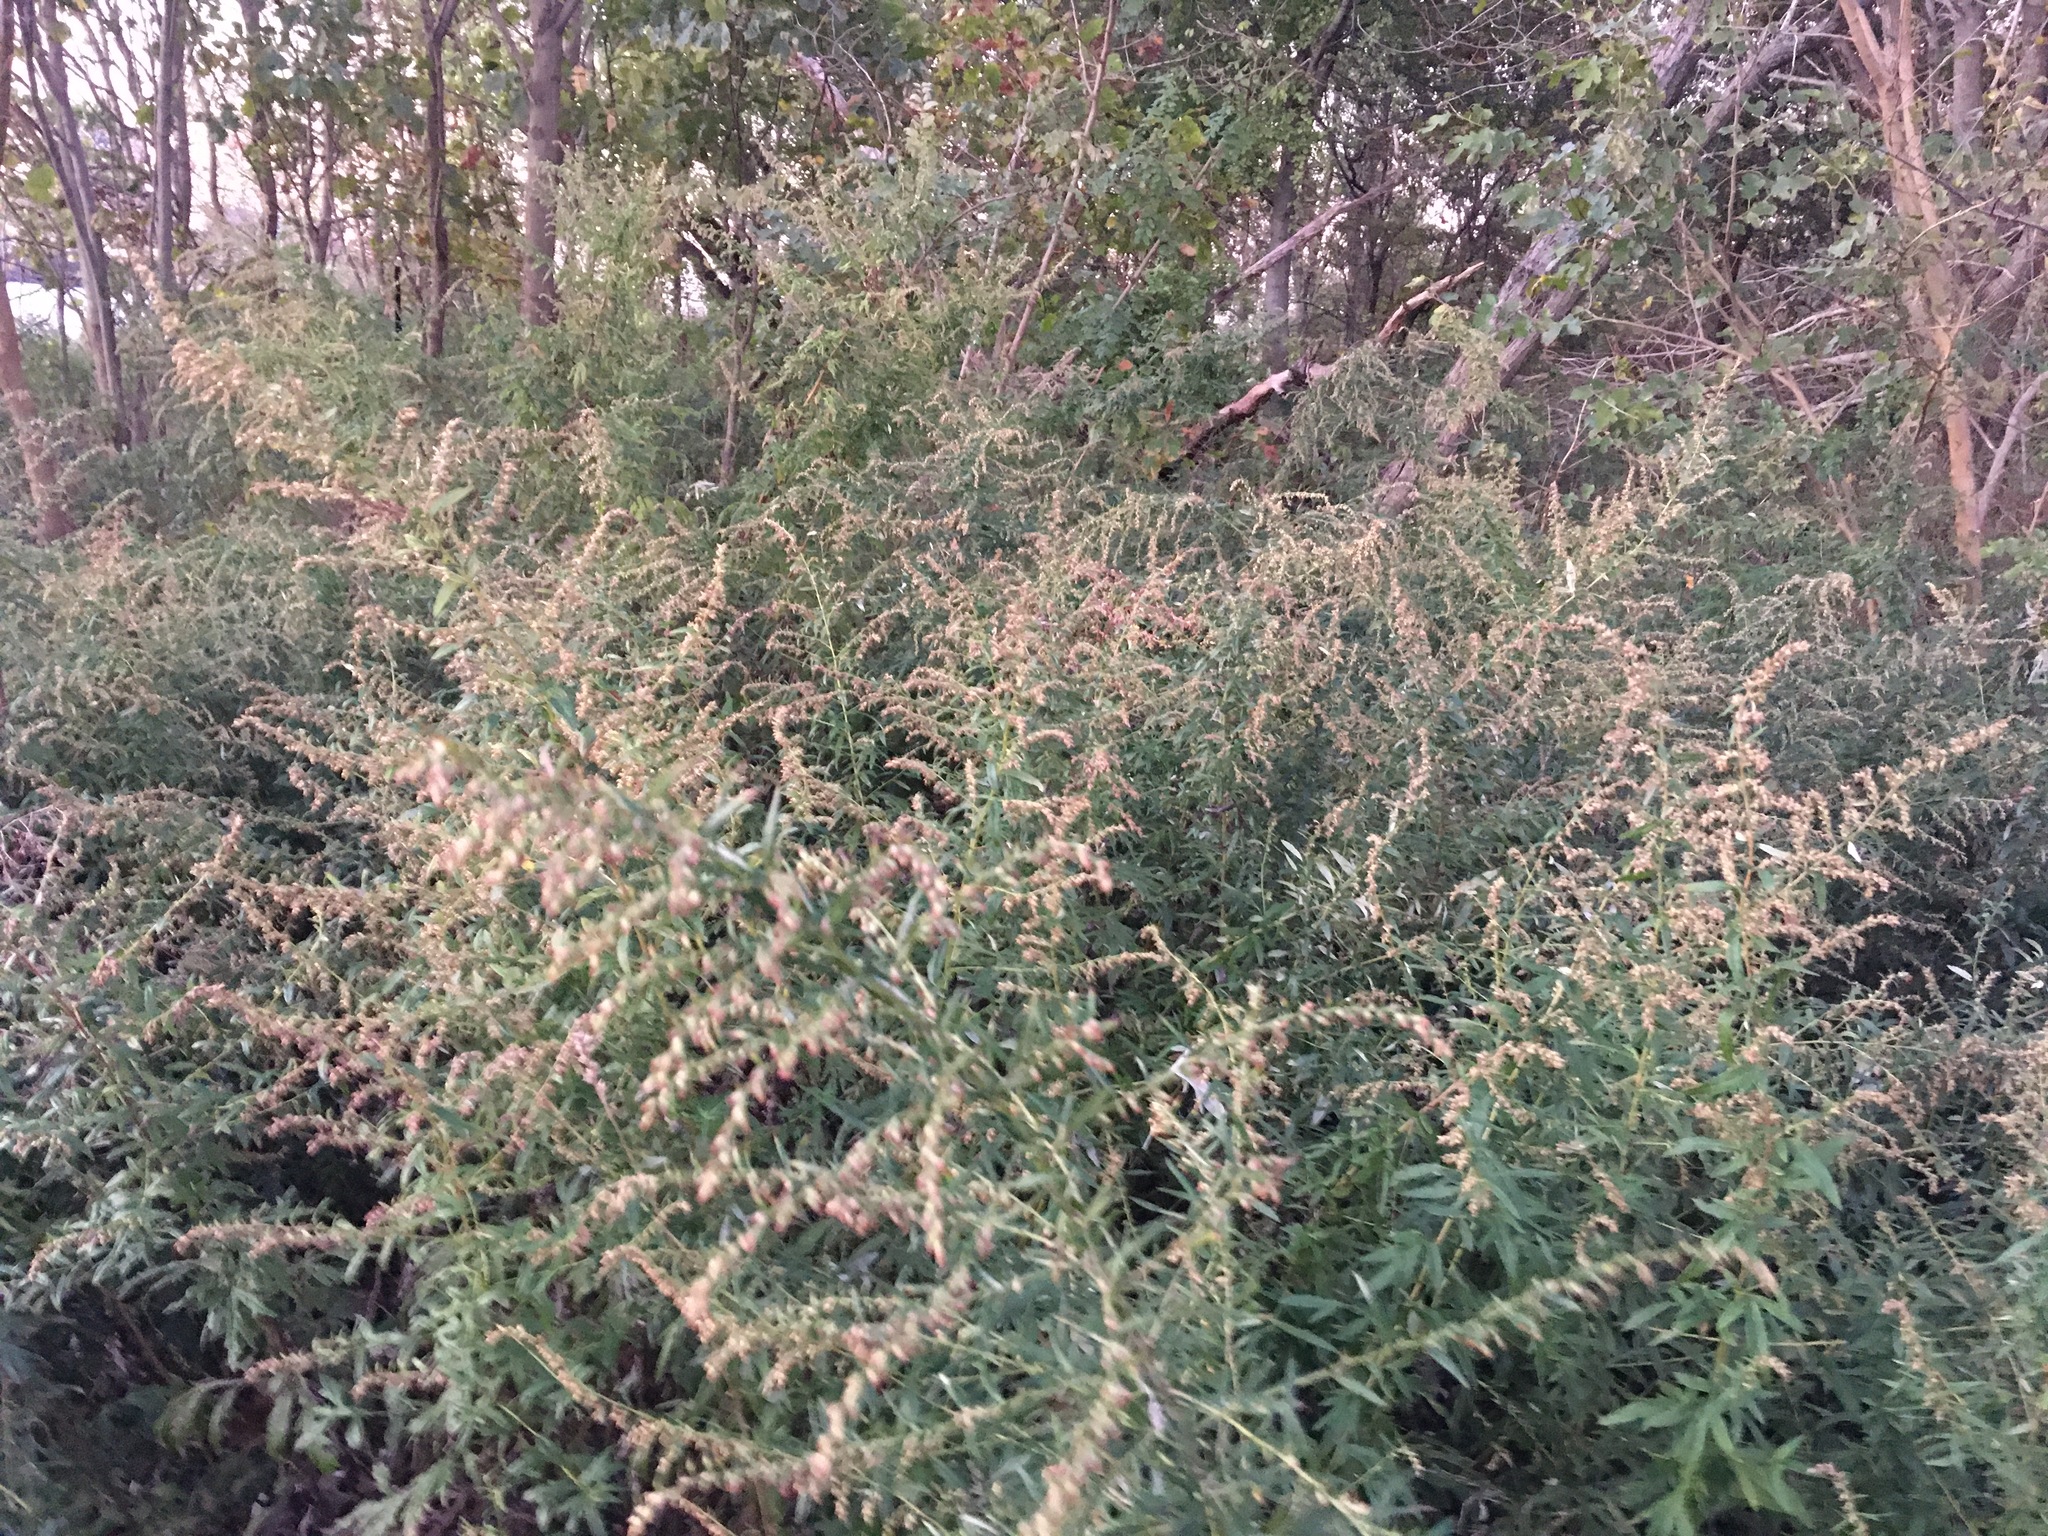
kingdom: Plantae
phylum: Tracheophyta
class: Magnoliopsida
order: Asterales
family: Asteraceae
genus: Artemisia
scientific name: Artemisia vulgaris
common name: Mugwort
